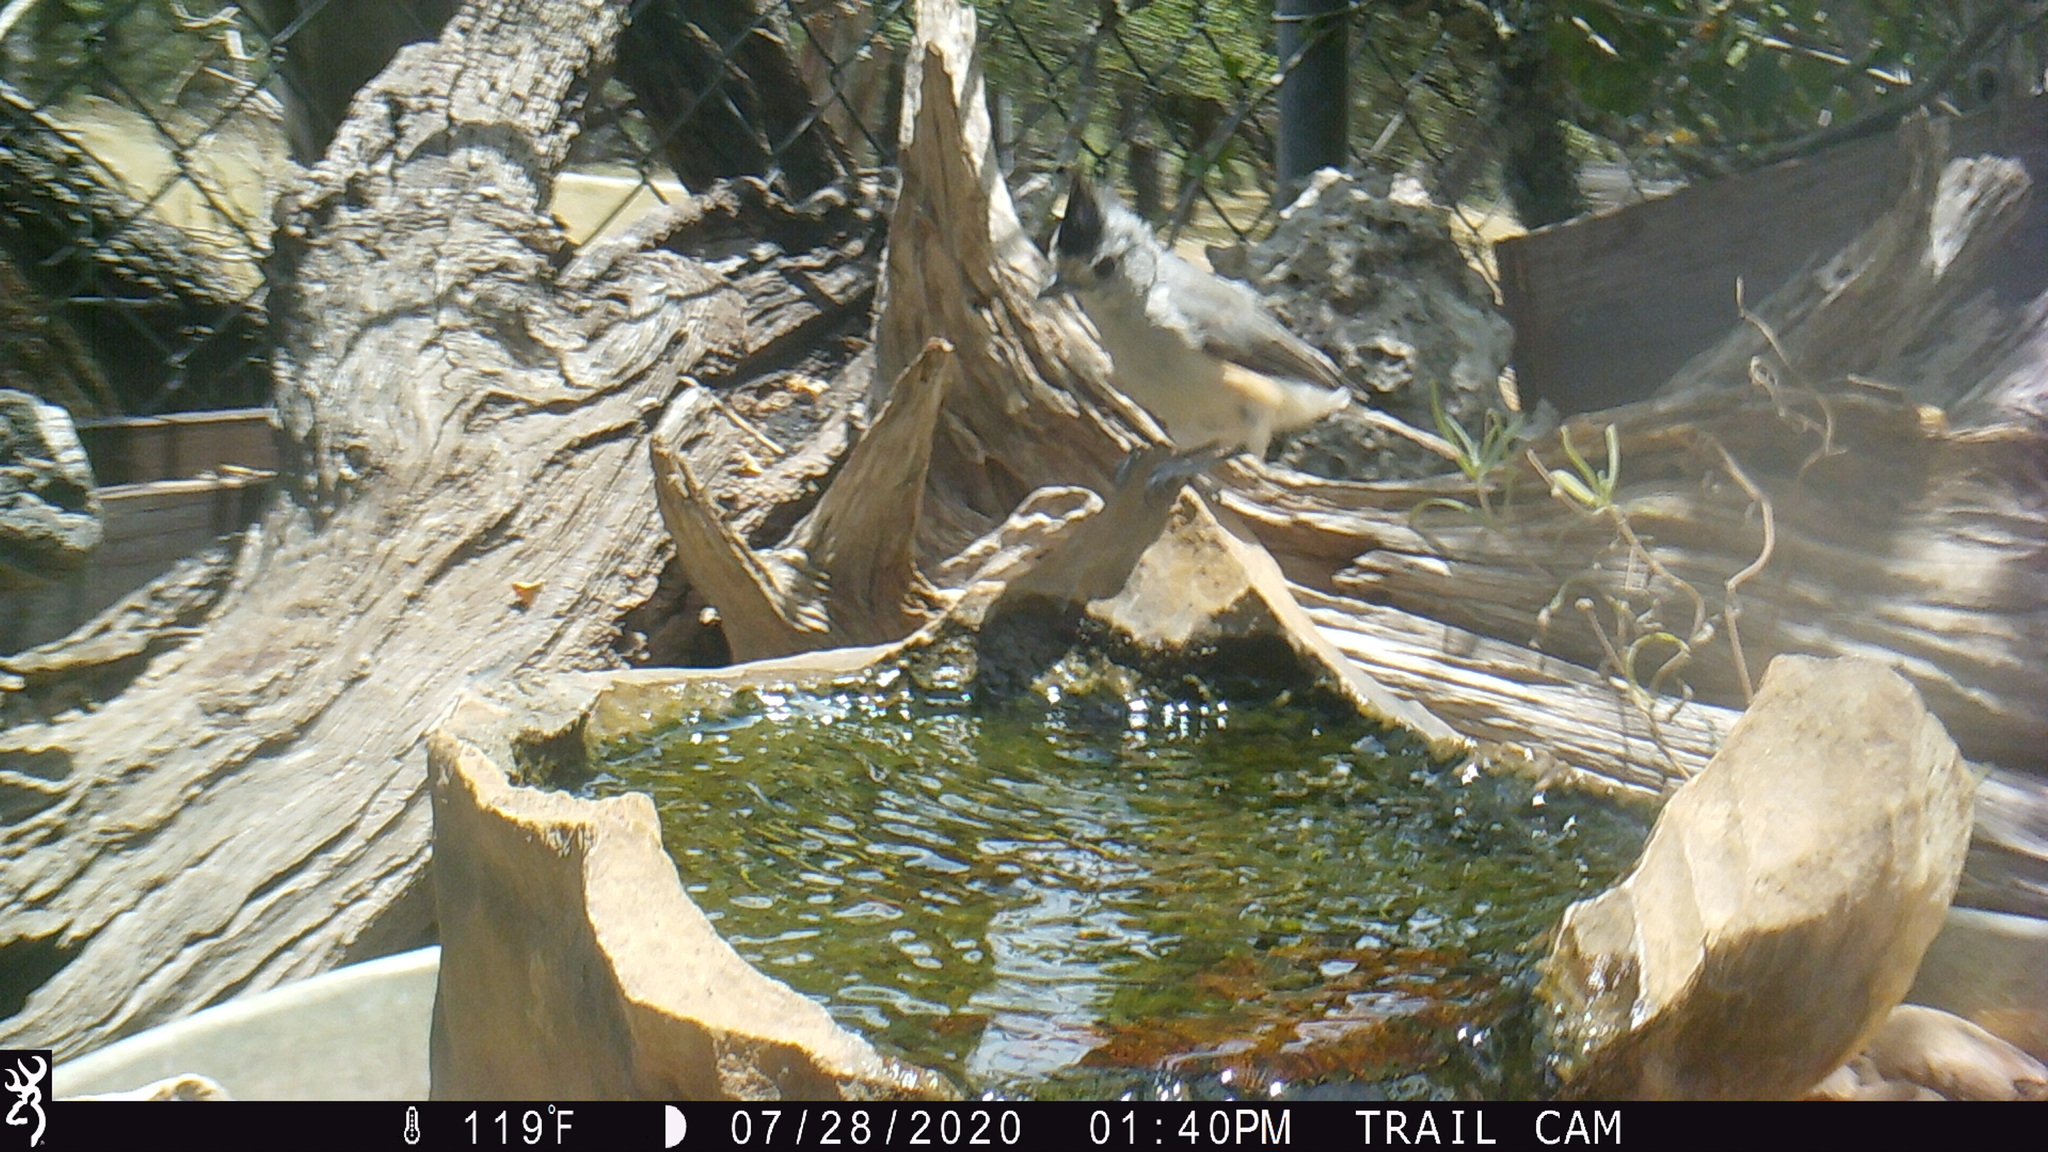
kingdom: Animalia
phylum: Chordata
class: Aves
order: Passeriformes
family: Paridae
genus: Baeolophus
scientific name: Baeolophus atricristatus
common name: Black-crested titmouse
